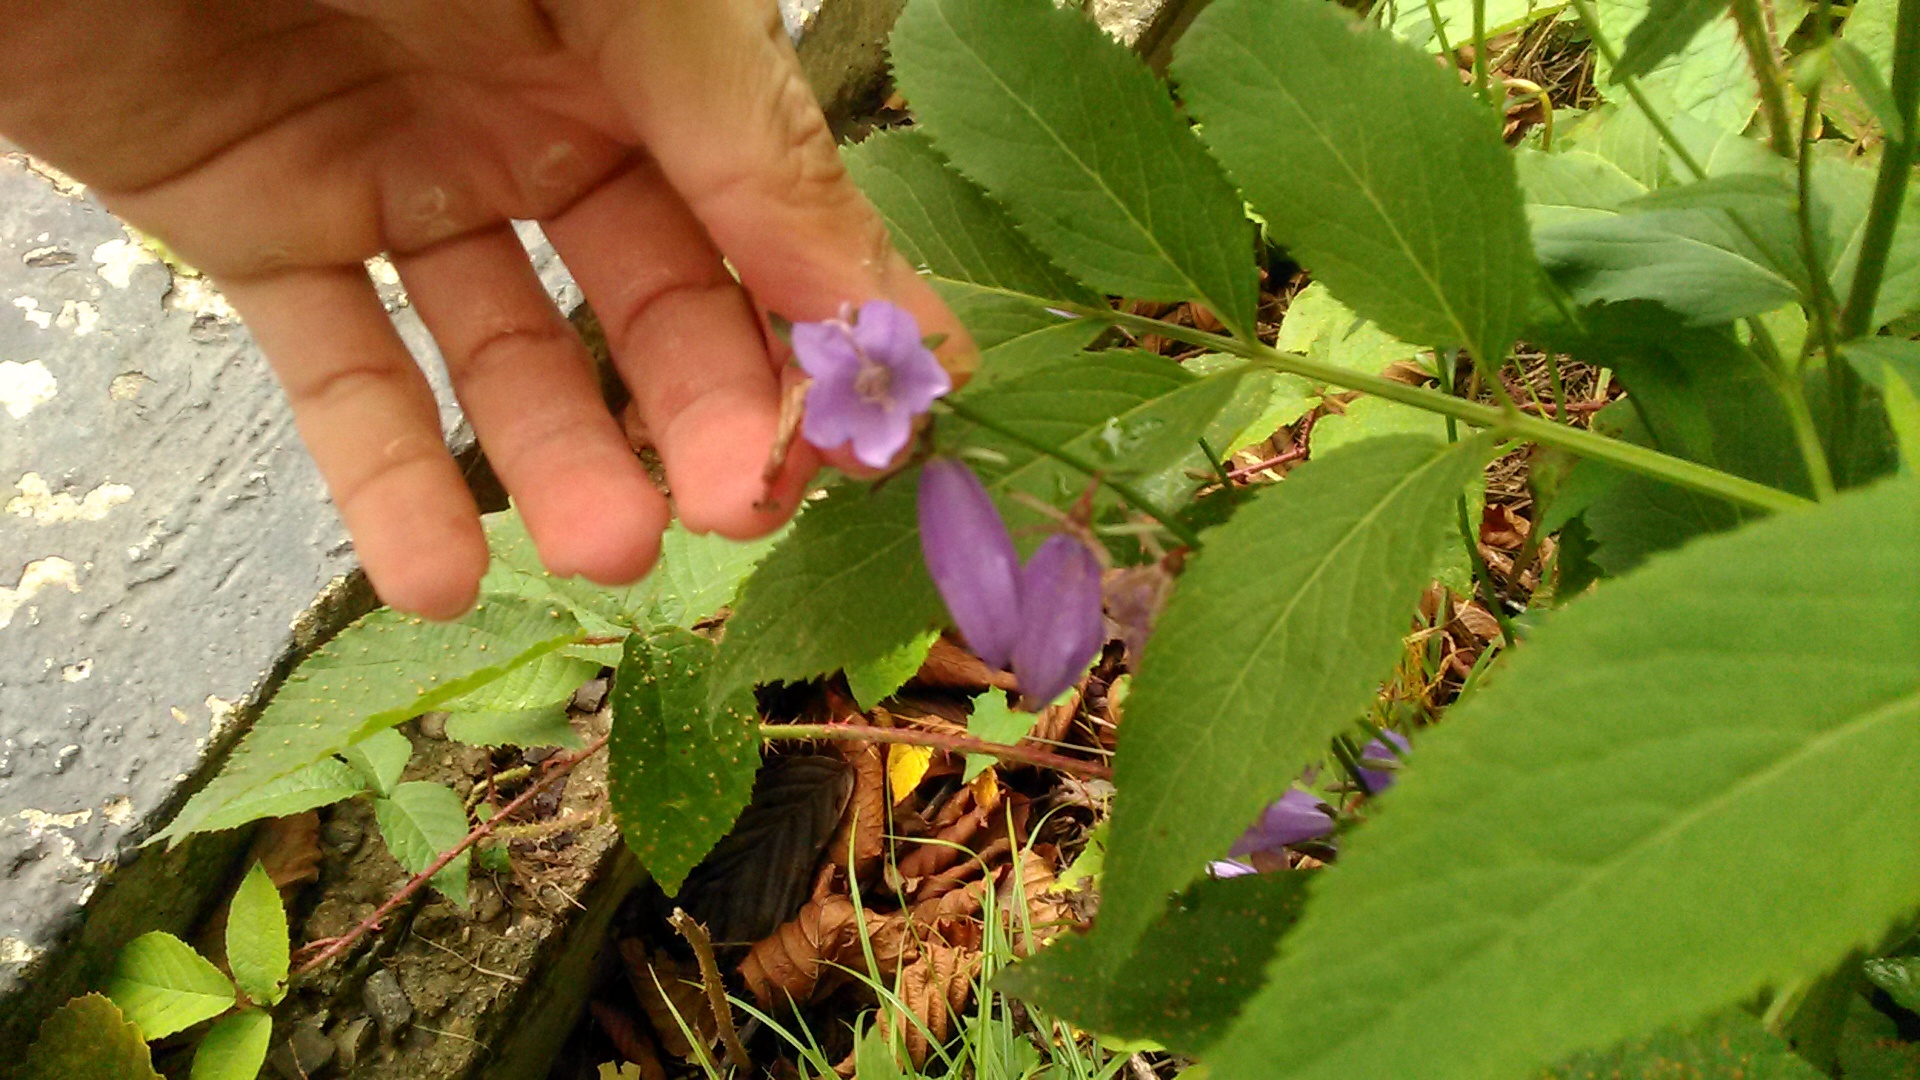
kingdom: Plantae
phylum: Tracheophyta
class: Magnoliopsida
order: Asterales
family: Campanulaceae
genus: Campanula
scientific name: Campanula rapunculoides
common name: Creeping bellflower
